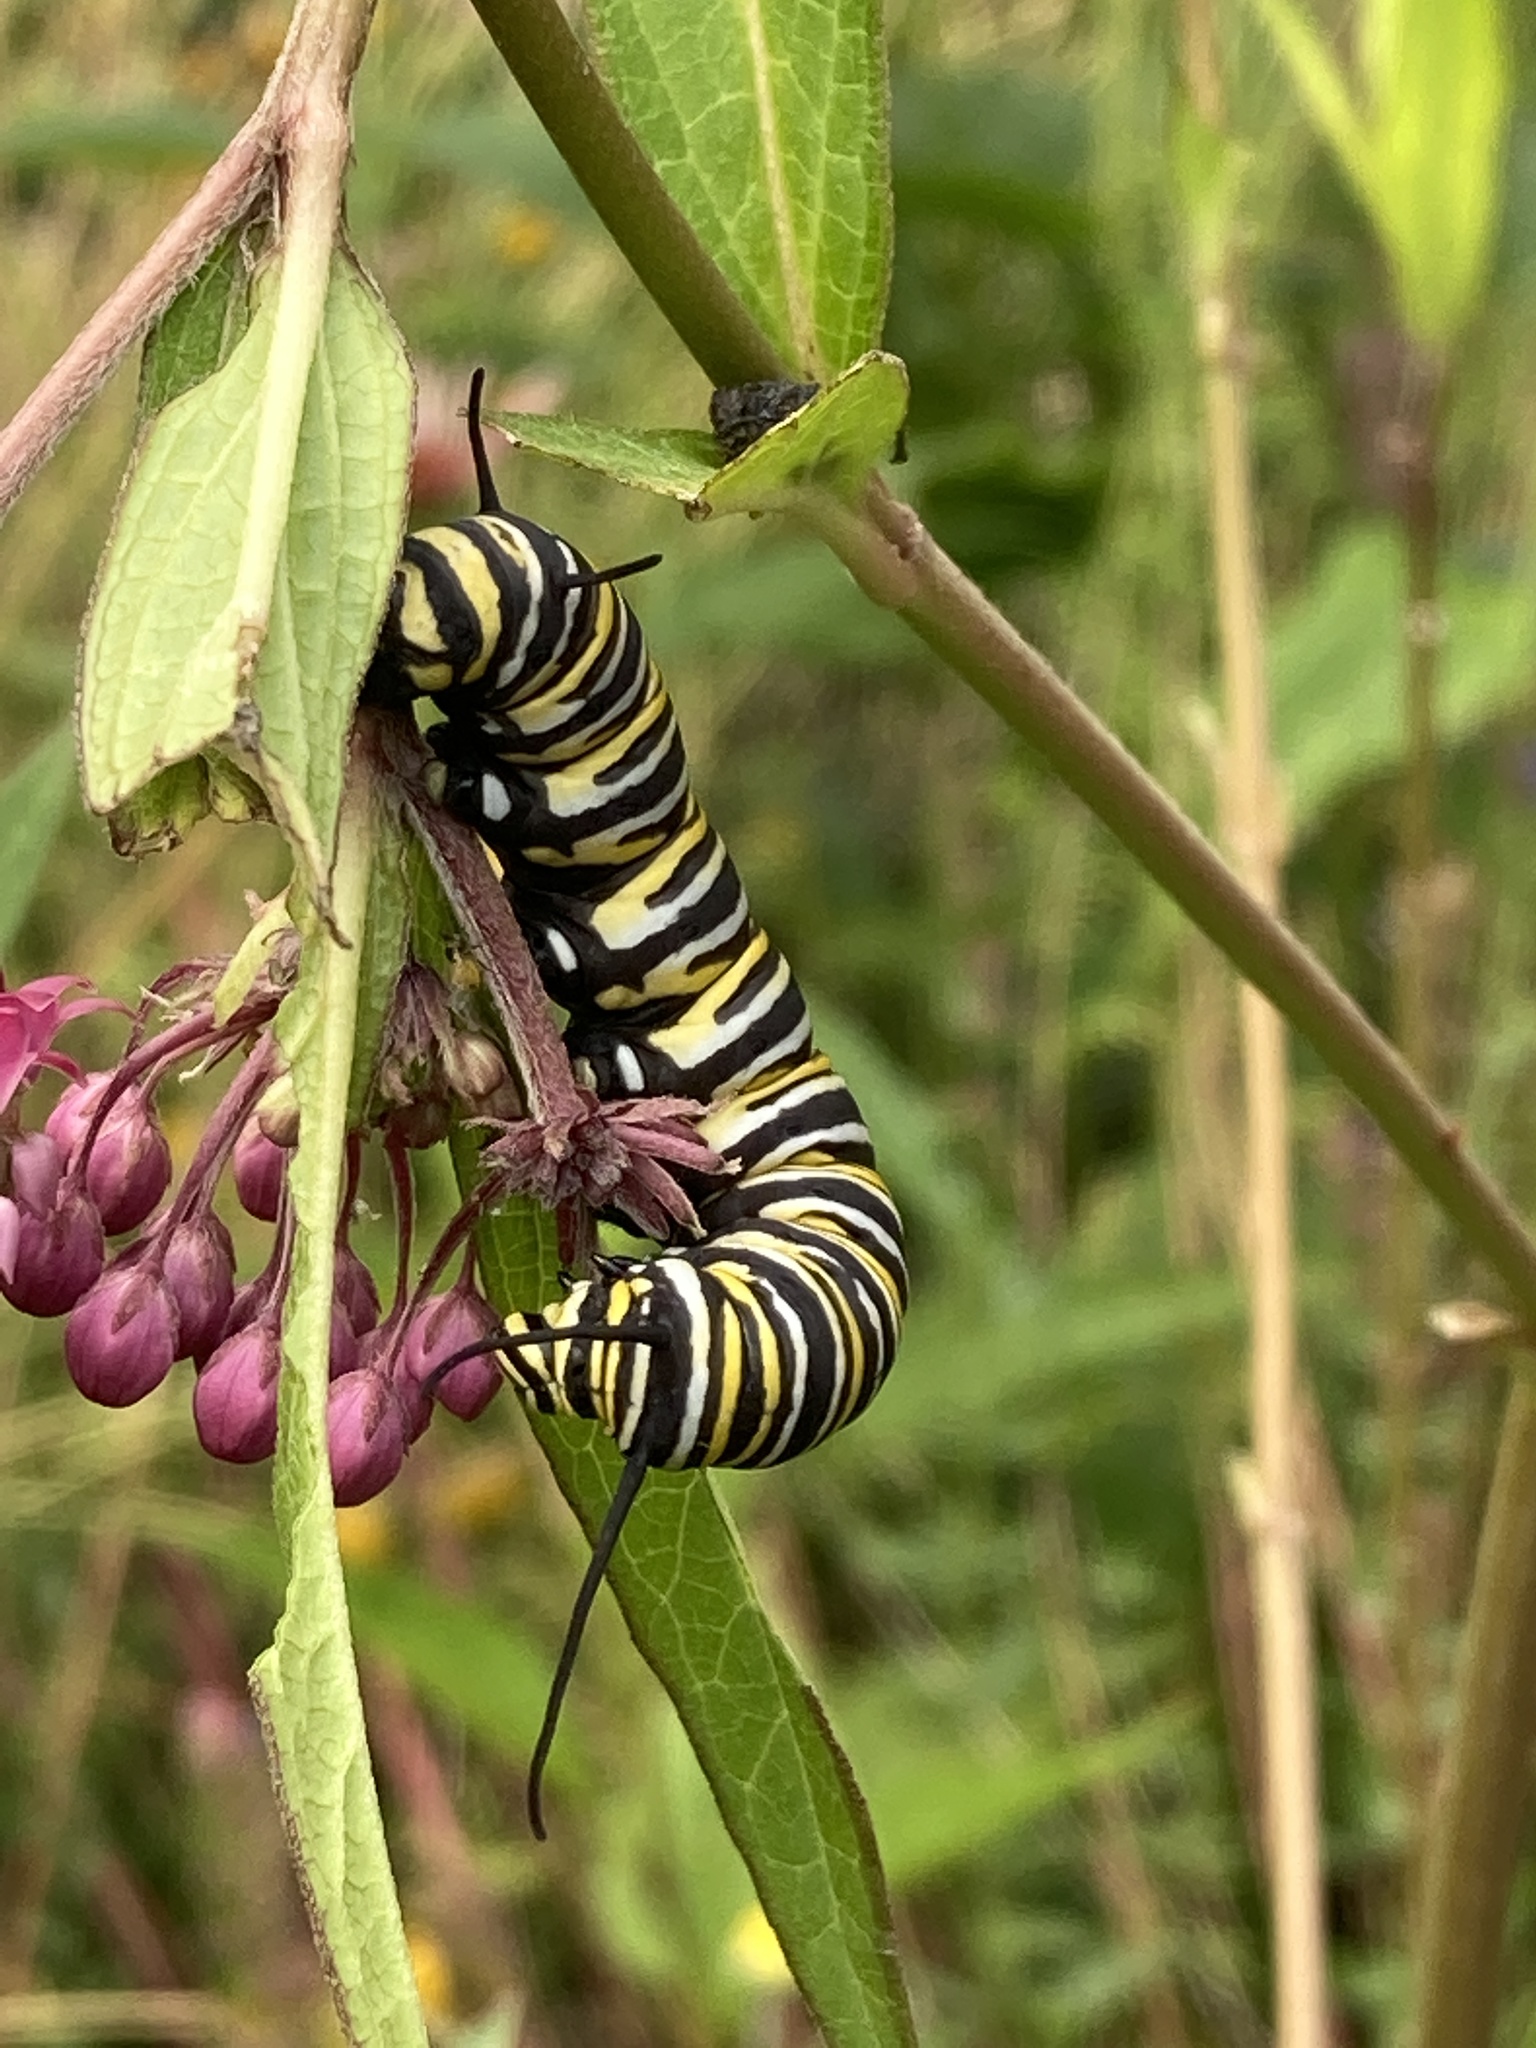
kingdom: Animalia
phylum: Arthropoda
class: Insecta
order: Lepidoptera
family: Nymphalidae
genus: Danaus
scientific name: Danaus plexippus
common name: Monarch
